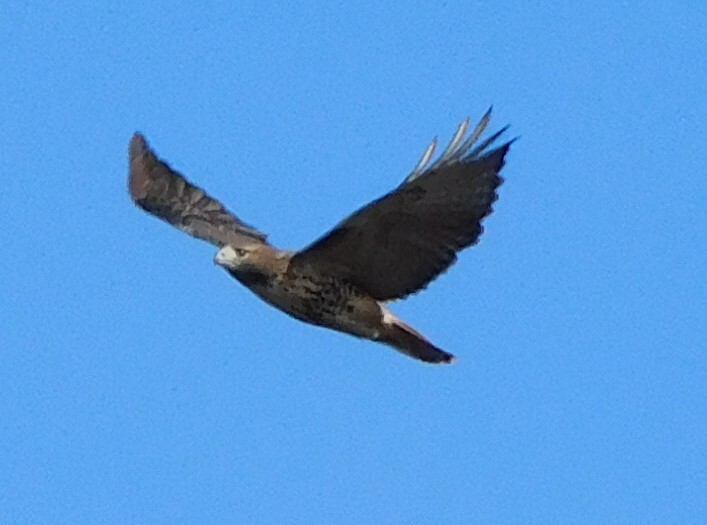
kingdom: Animalia
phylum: Chordata
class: Aves
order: Accipitriformes
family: Accipitridae
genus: Buteo
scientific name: Buteo jamaicensis
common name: Red-tailed hawk
